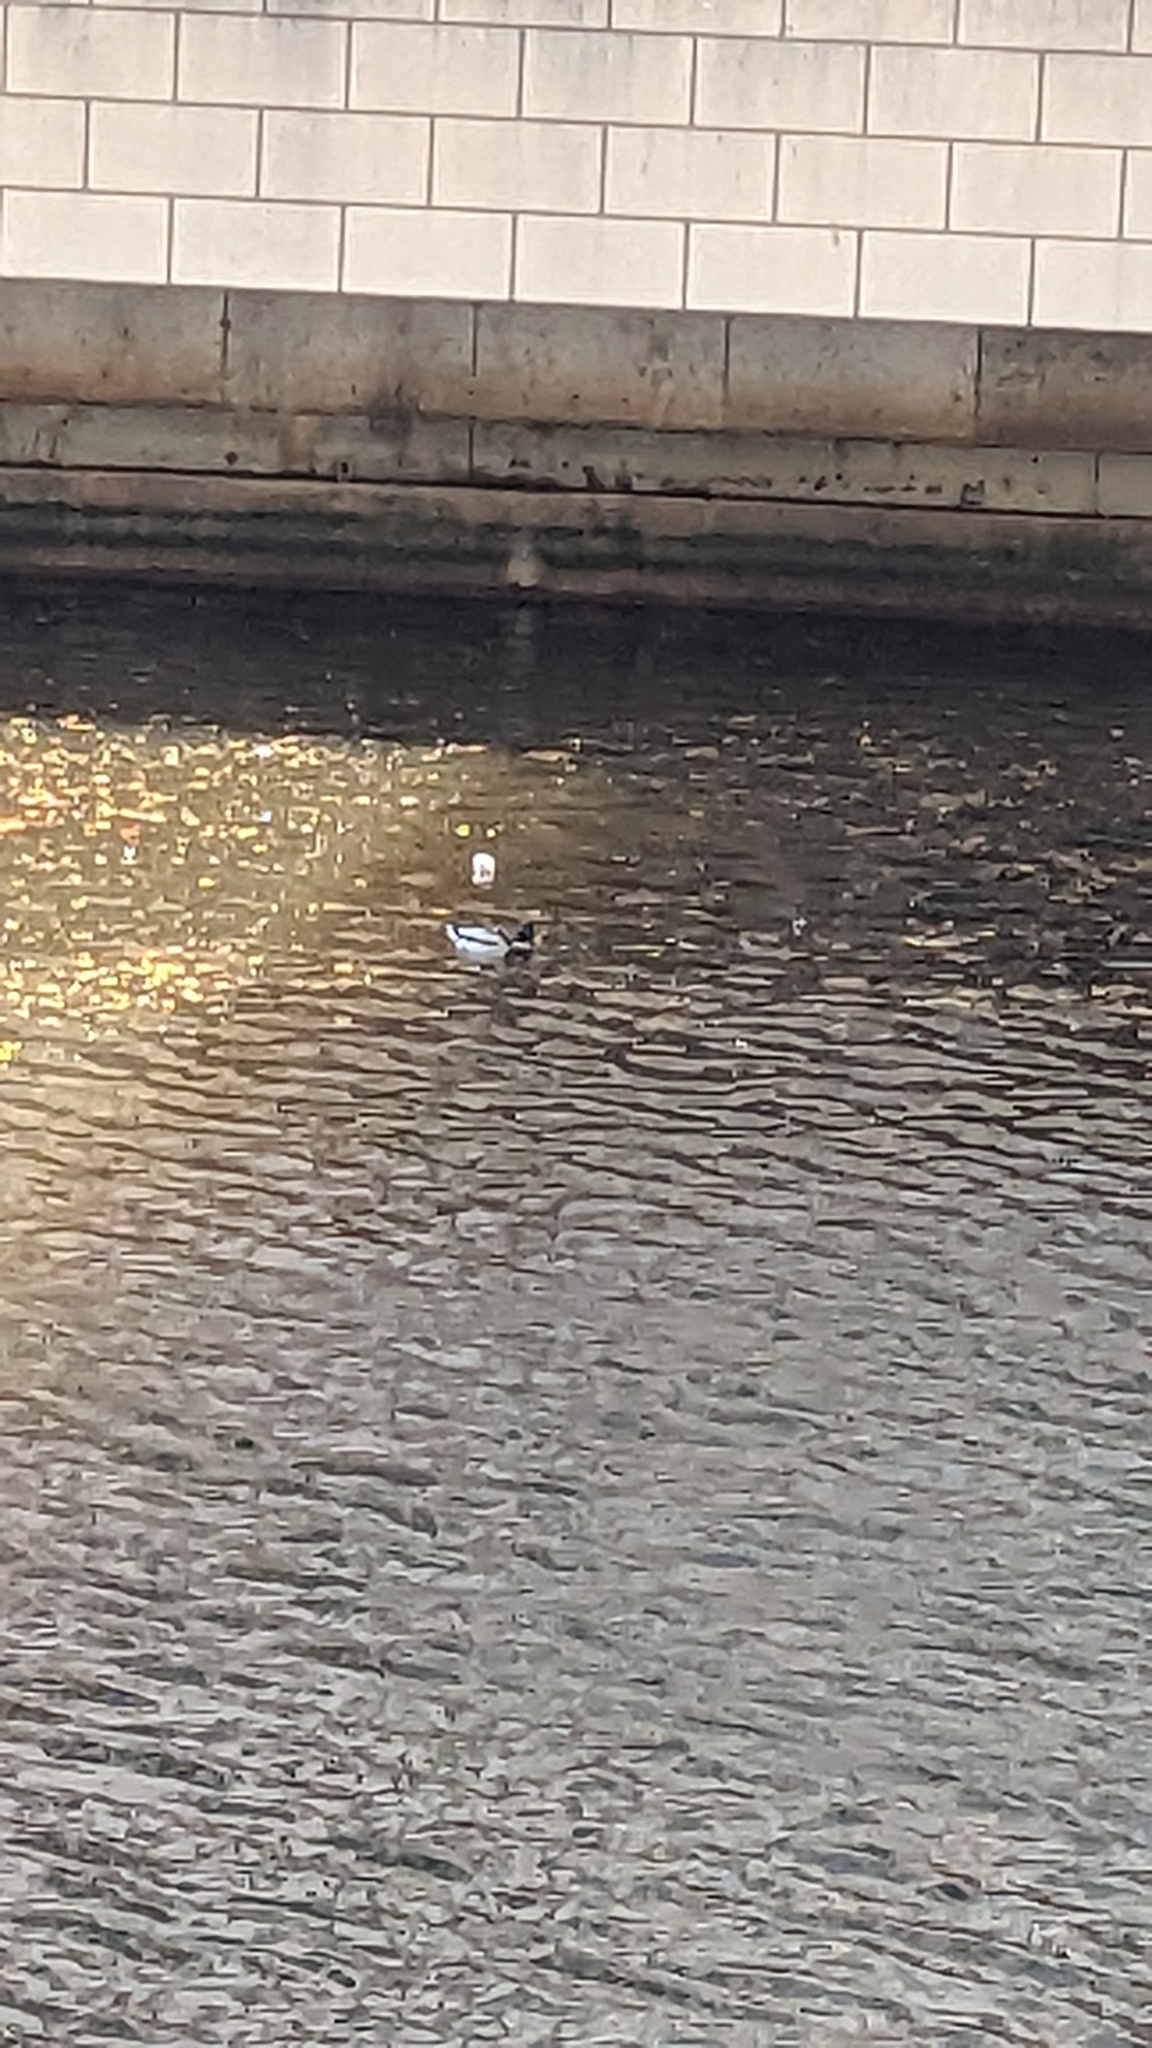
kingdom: Animalia
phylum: Chordata
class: Aves
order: Anseriformes
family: Anatidae
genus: Anas
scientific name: Anas platyrhynchos
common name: Mallard
